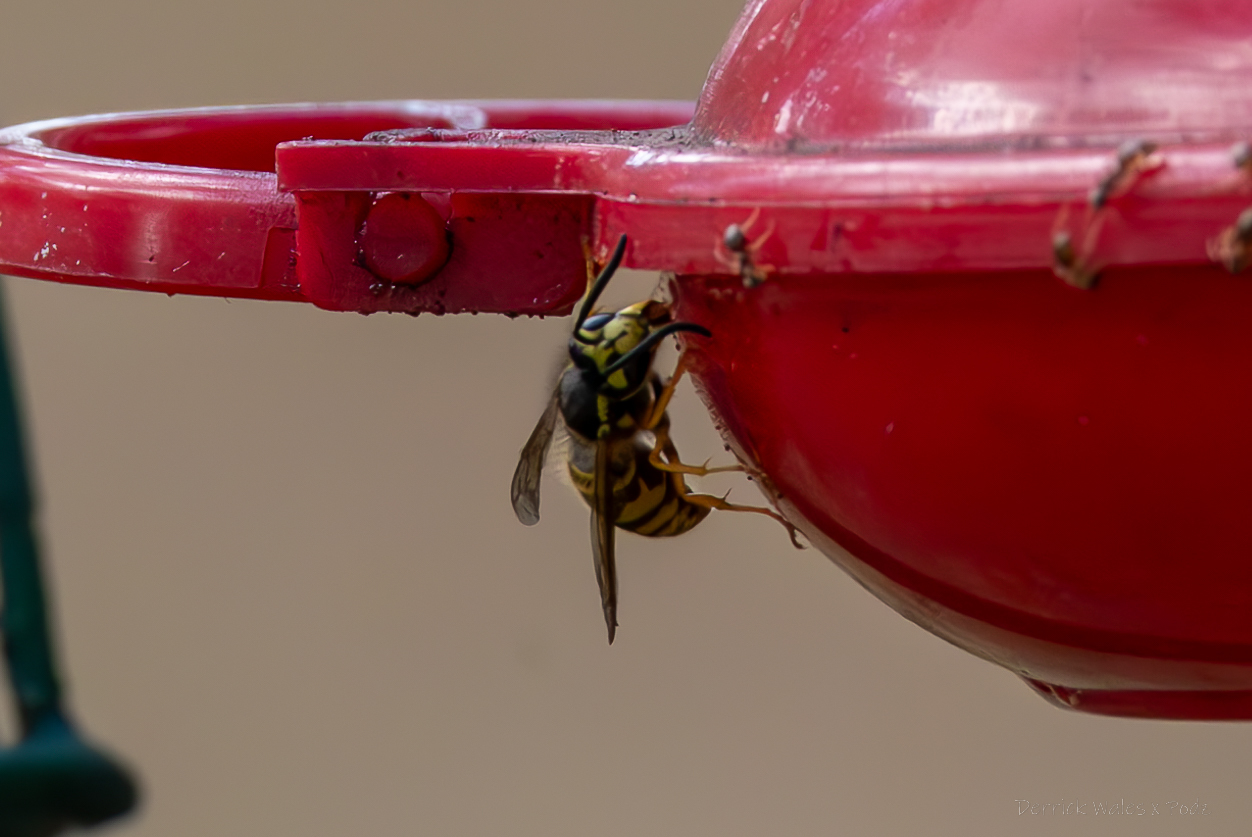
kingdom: Animalia
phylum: Arthropoda
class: Insecta
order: Hymenoptera
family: Vespidae
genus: Vespula
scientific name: Vespula maculifrons
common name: Eastern yellowjacket
